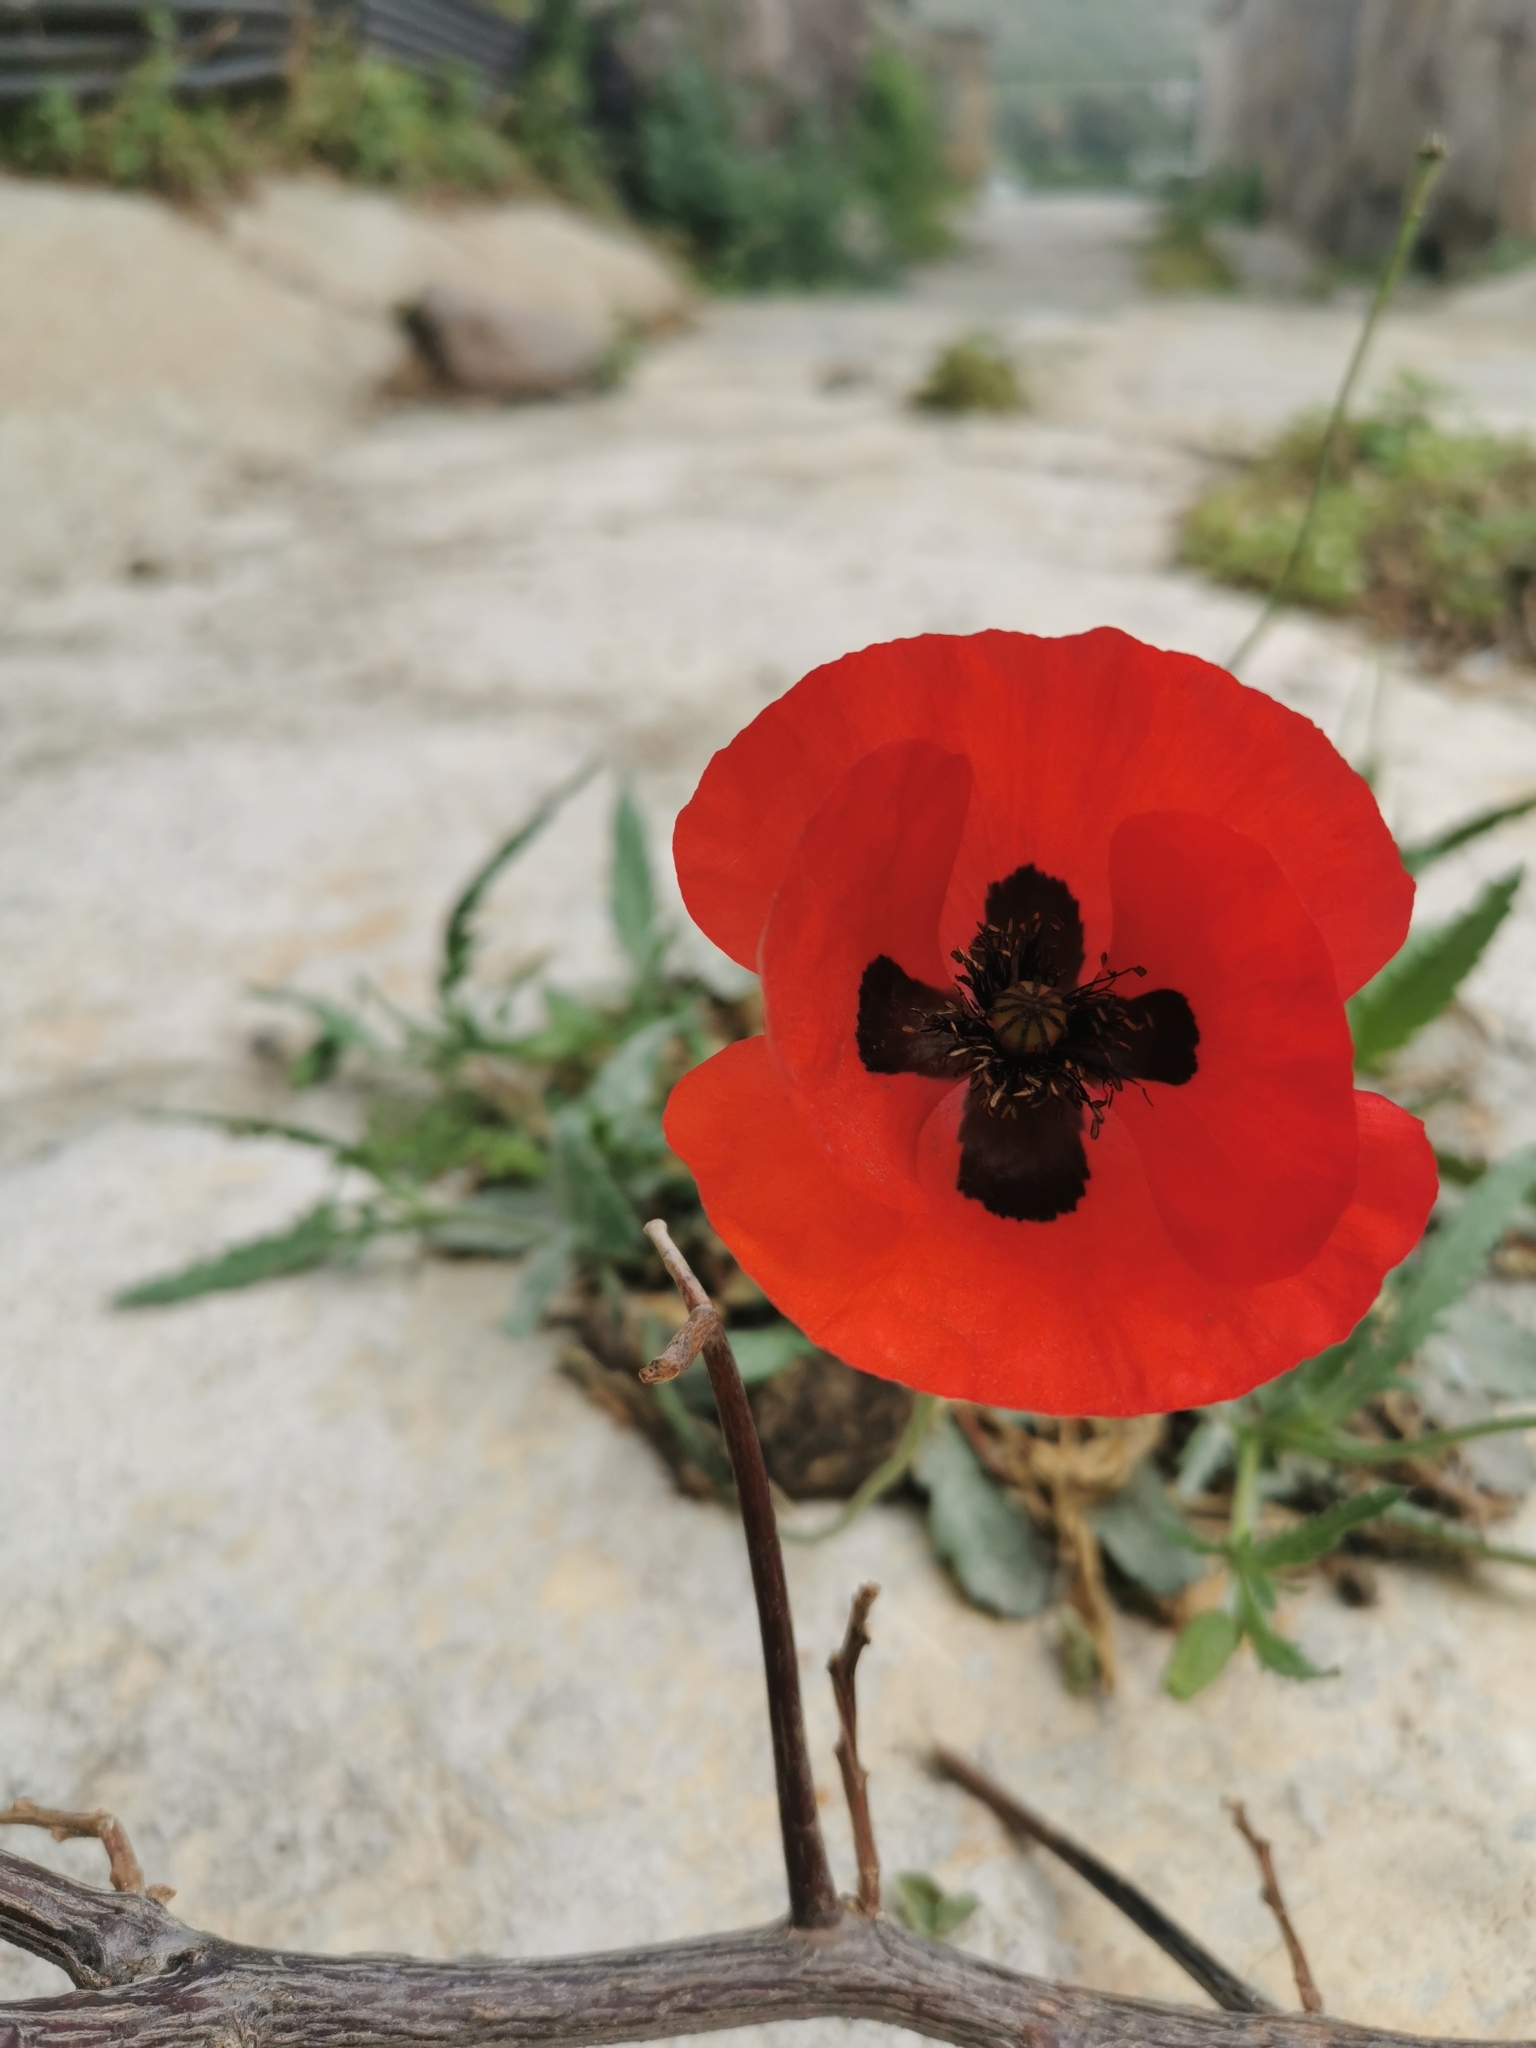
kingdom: Plantae
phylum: Tracheophyta
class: Magnoliopsida
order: Ranunculales
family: Papaveraceae
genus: Papaver
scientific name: Papaver rhoeas
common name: Corn poppy
